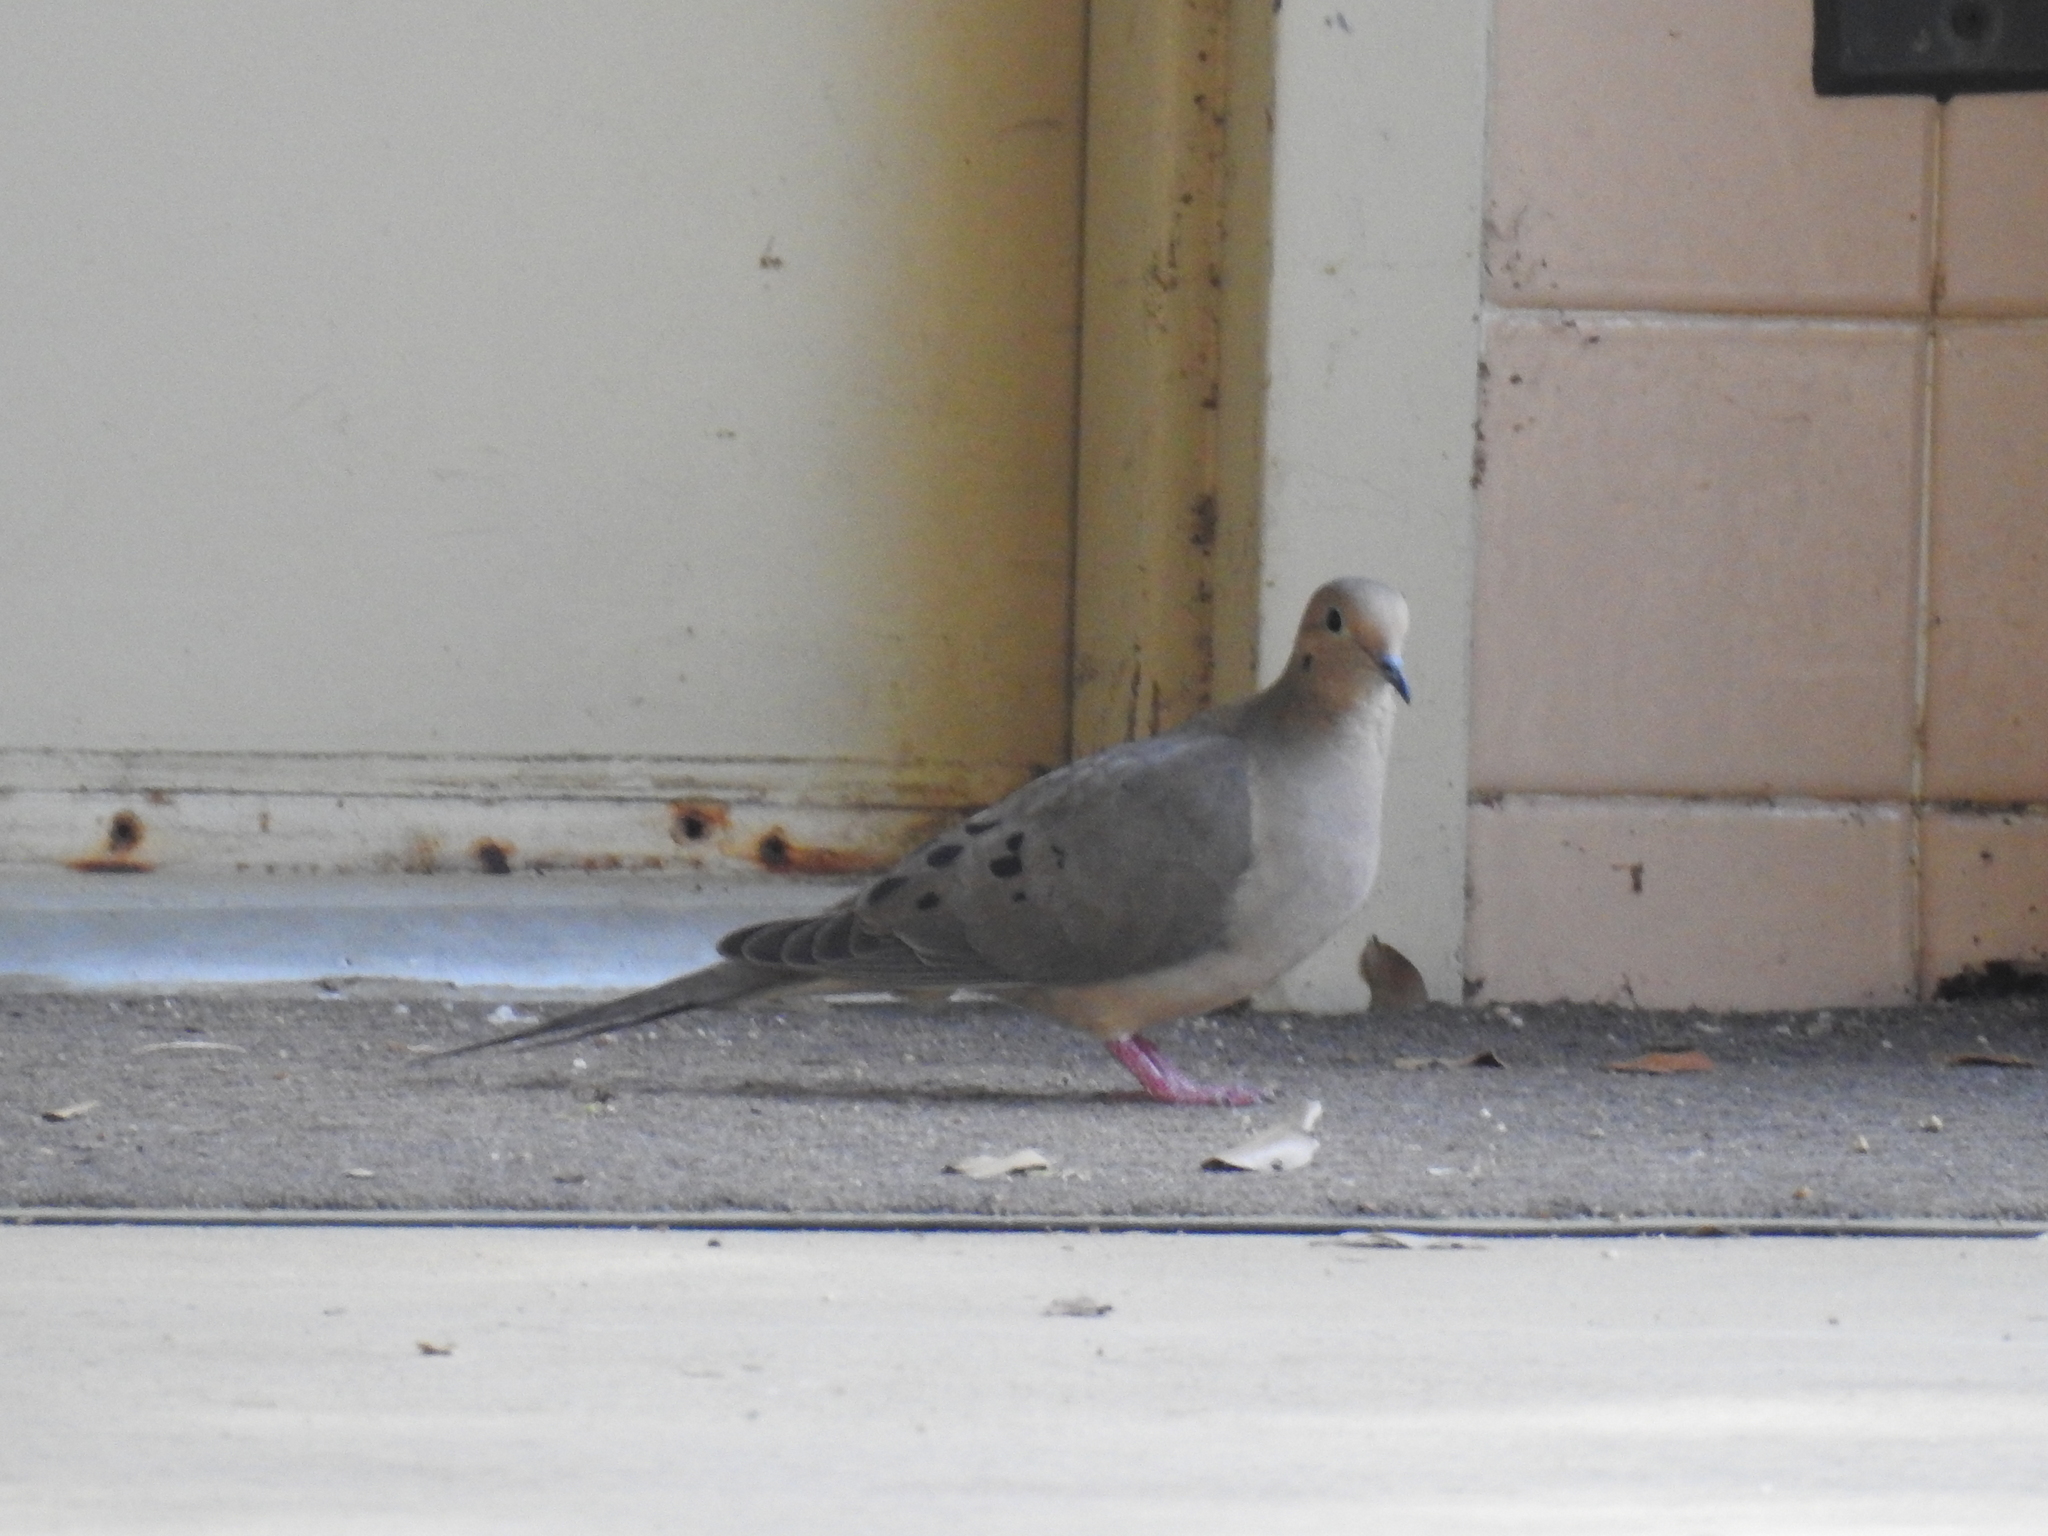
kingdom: Animalia
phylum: Chordata
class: Aves
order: Columbiformes
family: Columbidae
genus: Zenaida
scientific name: Zenaida macroura
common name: Mourning dove
